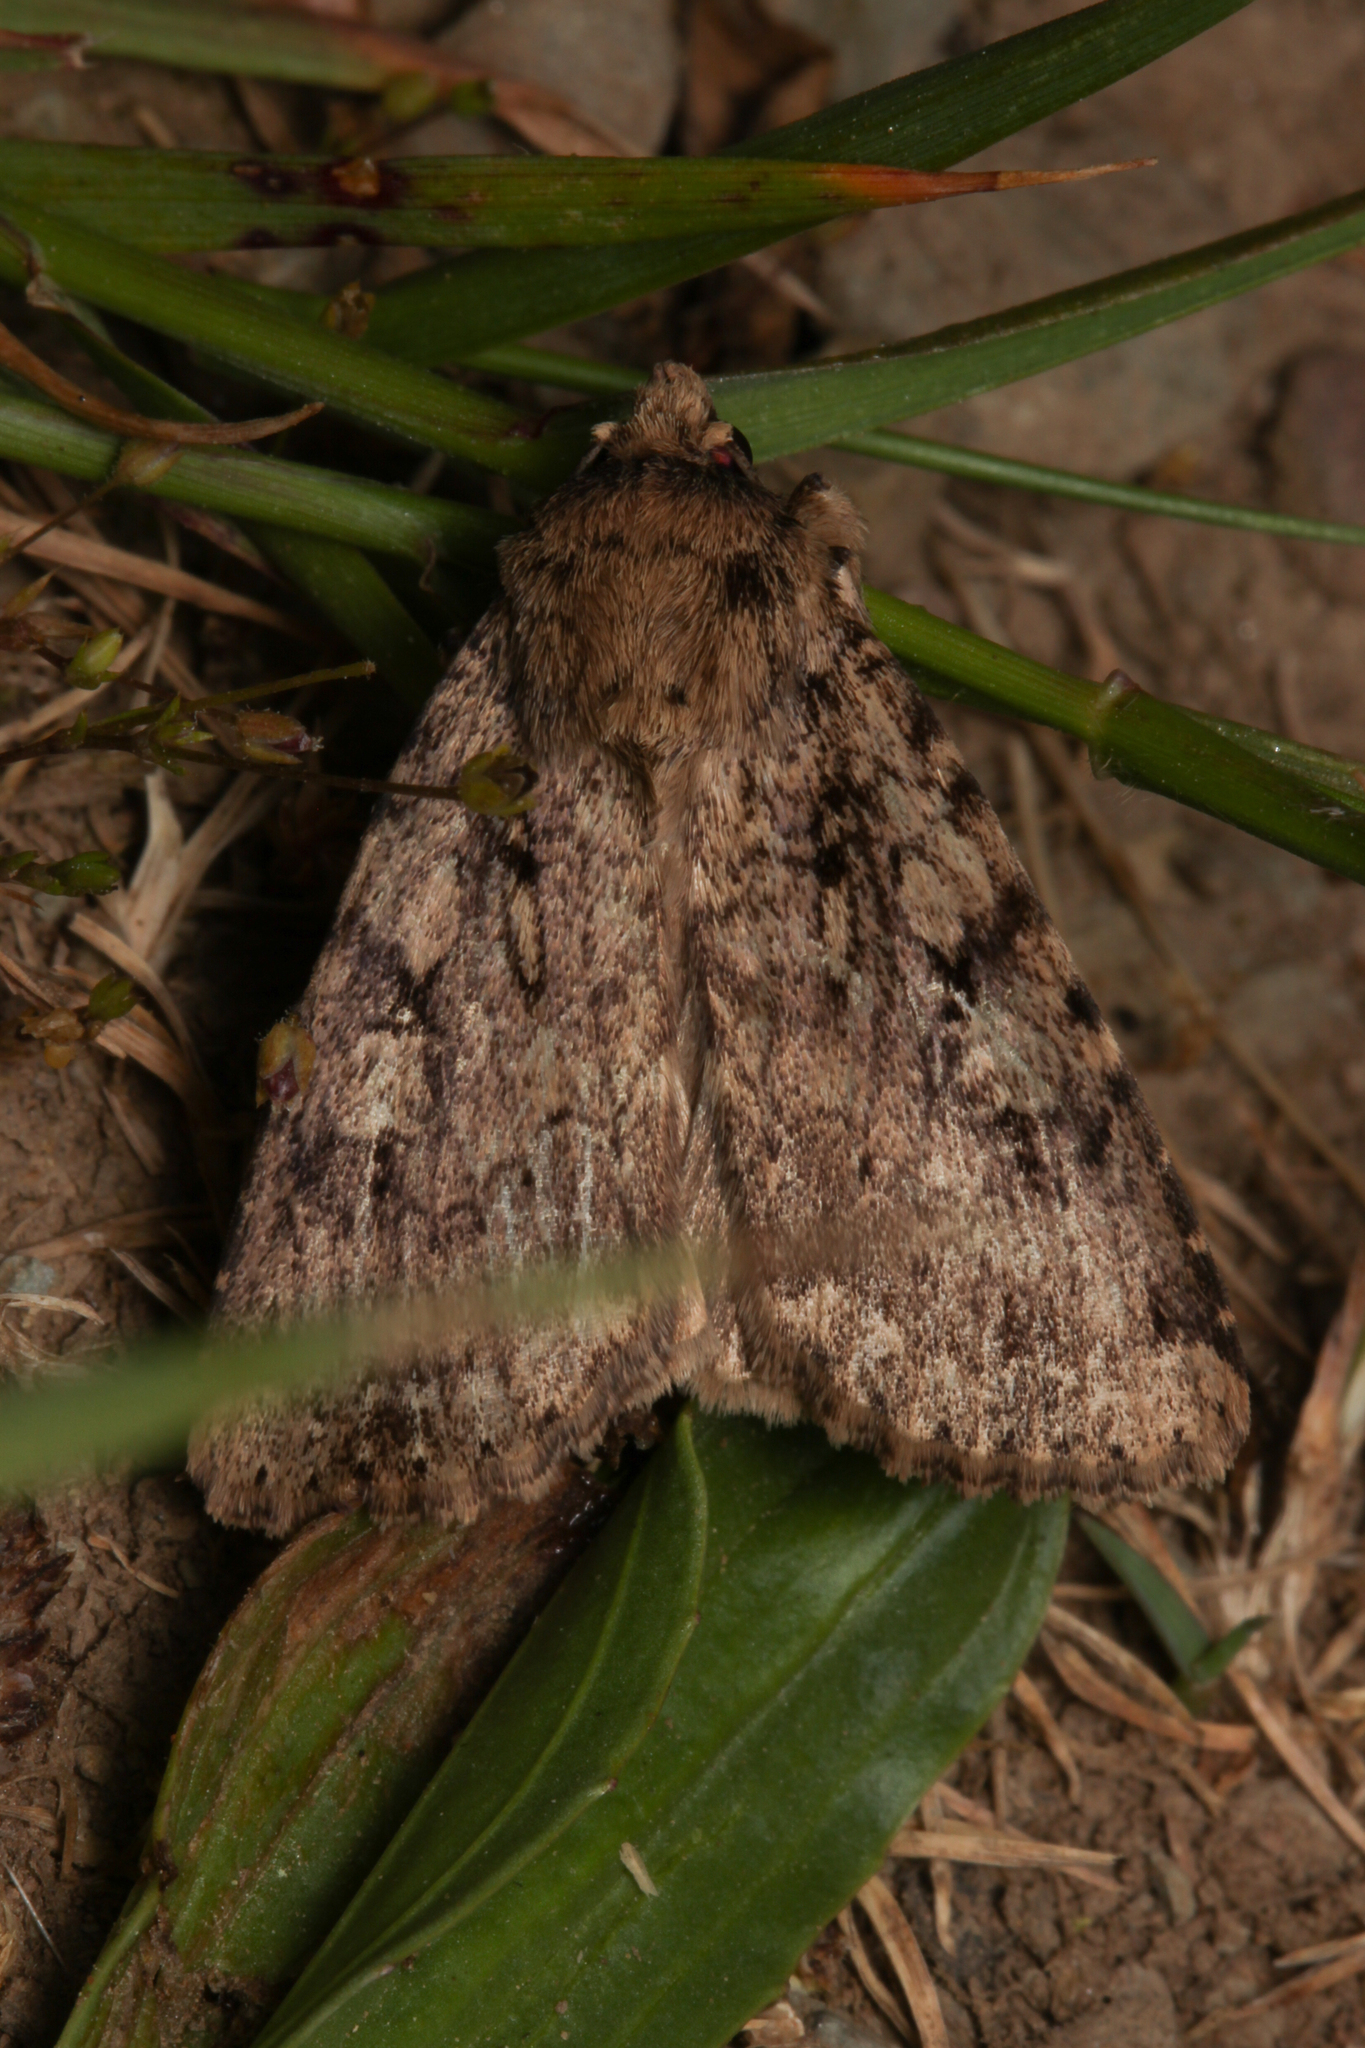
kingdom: Animalia
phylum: Arthropoda
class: Insecta
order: Lepidoptera
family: Noctuidae
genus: Amphipyra
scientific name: Amphipyra effusa
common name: Landguard ochre
